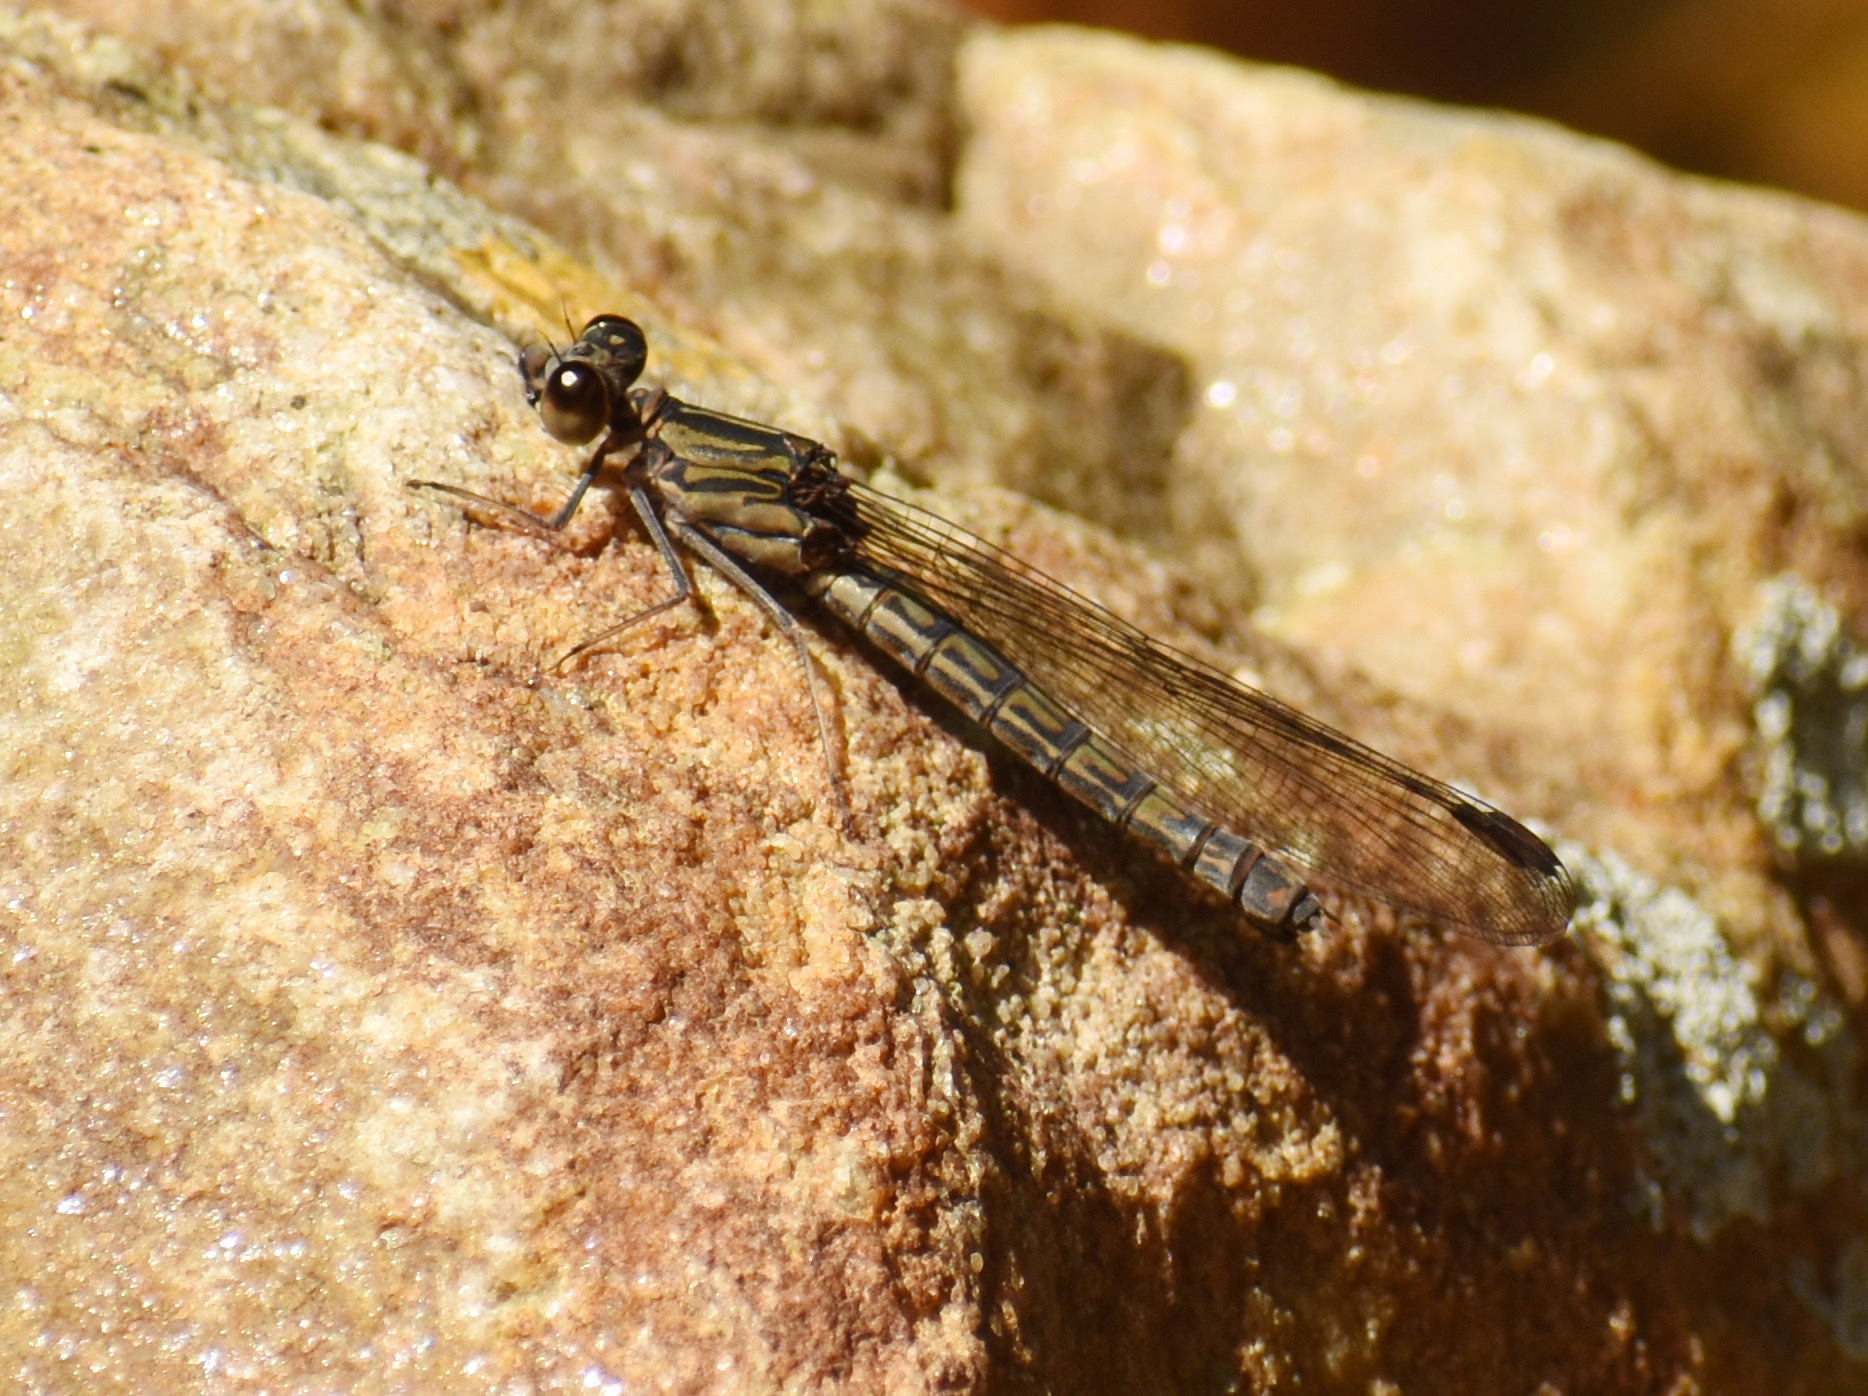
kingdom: Animalia
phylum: Arthropoda
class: Insecta
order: Odonata
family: Chlorocyphidae
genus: Platycypha
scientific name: Platycypha caligata
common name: Dancing jewel
